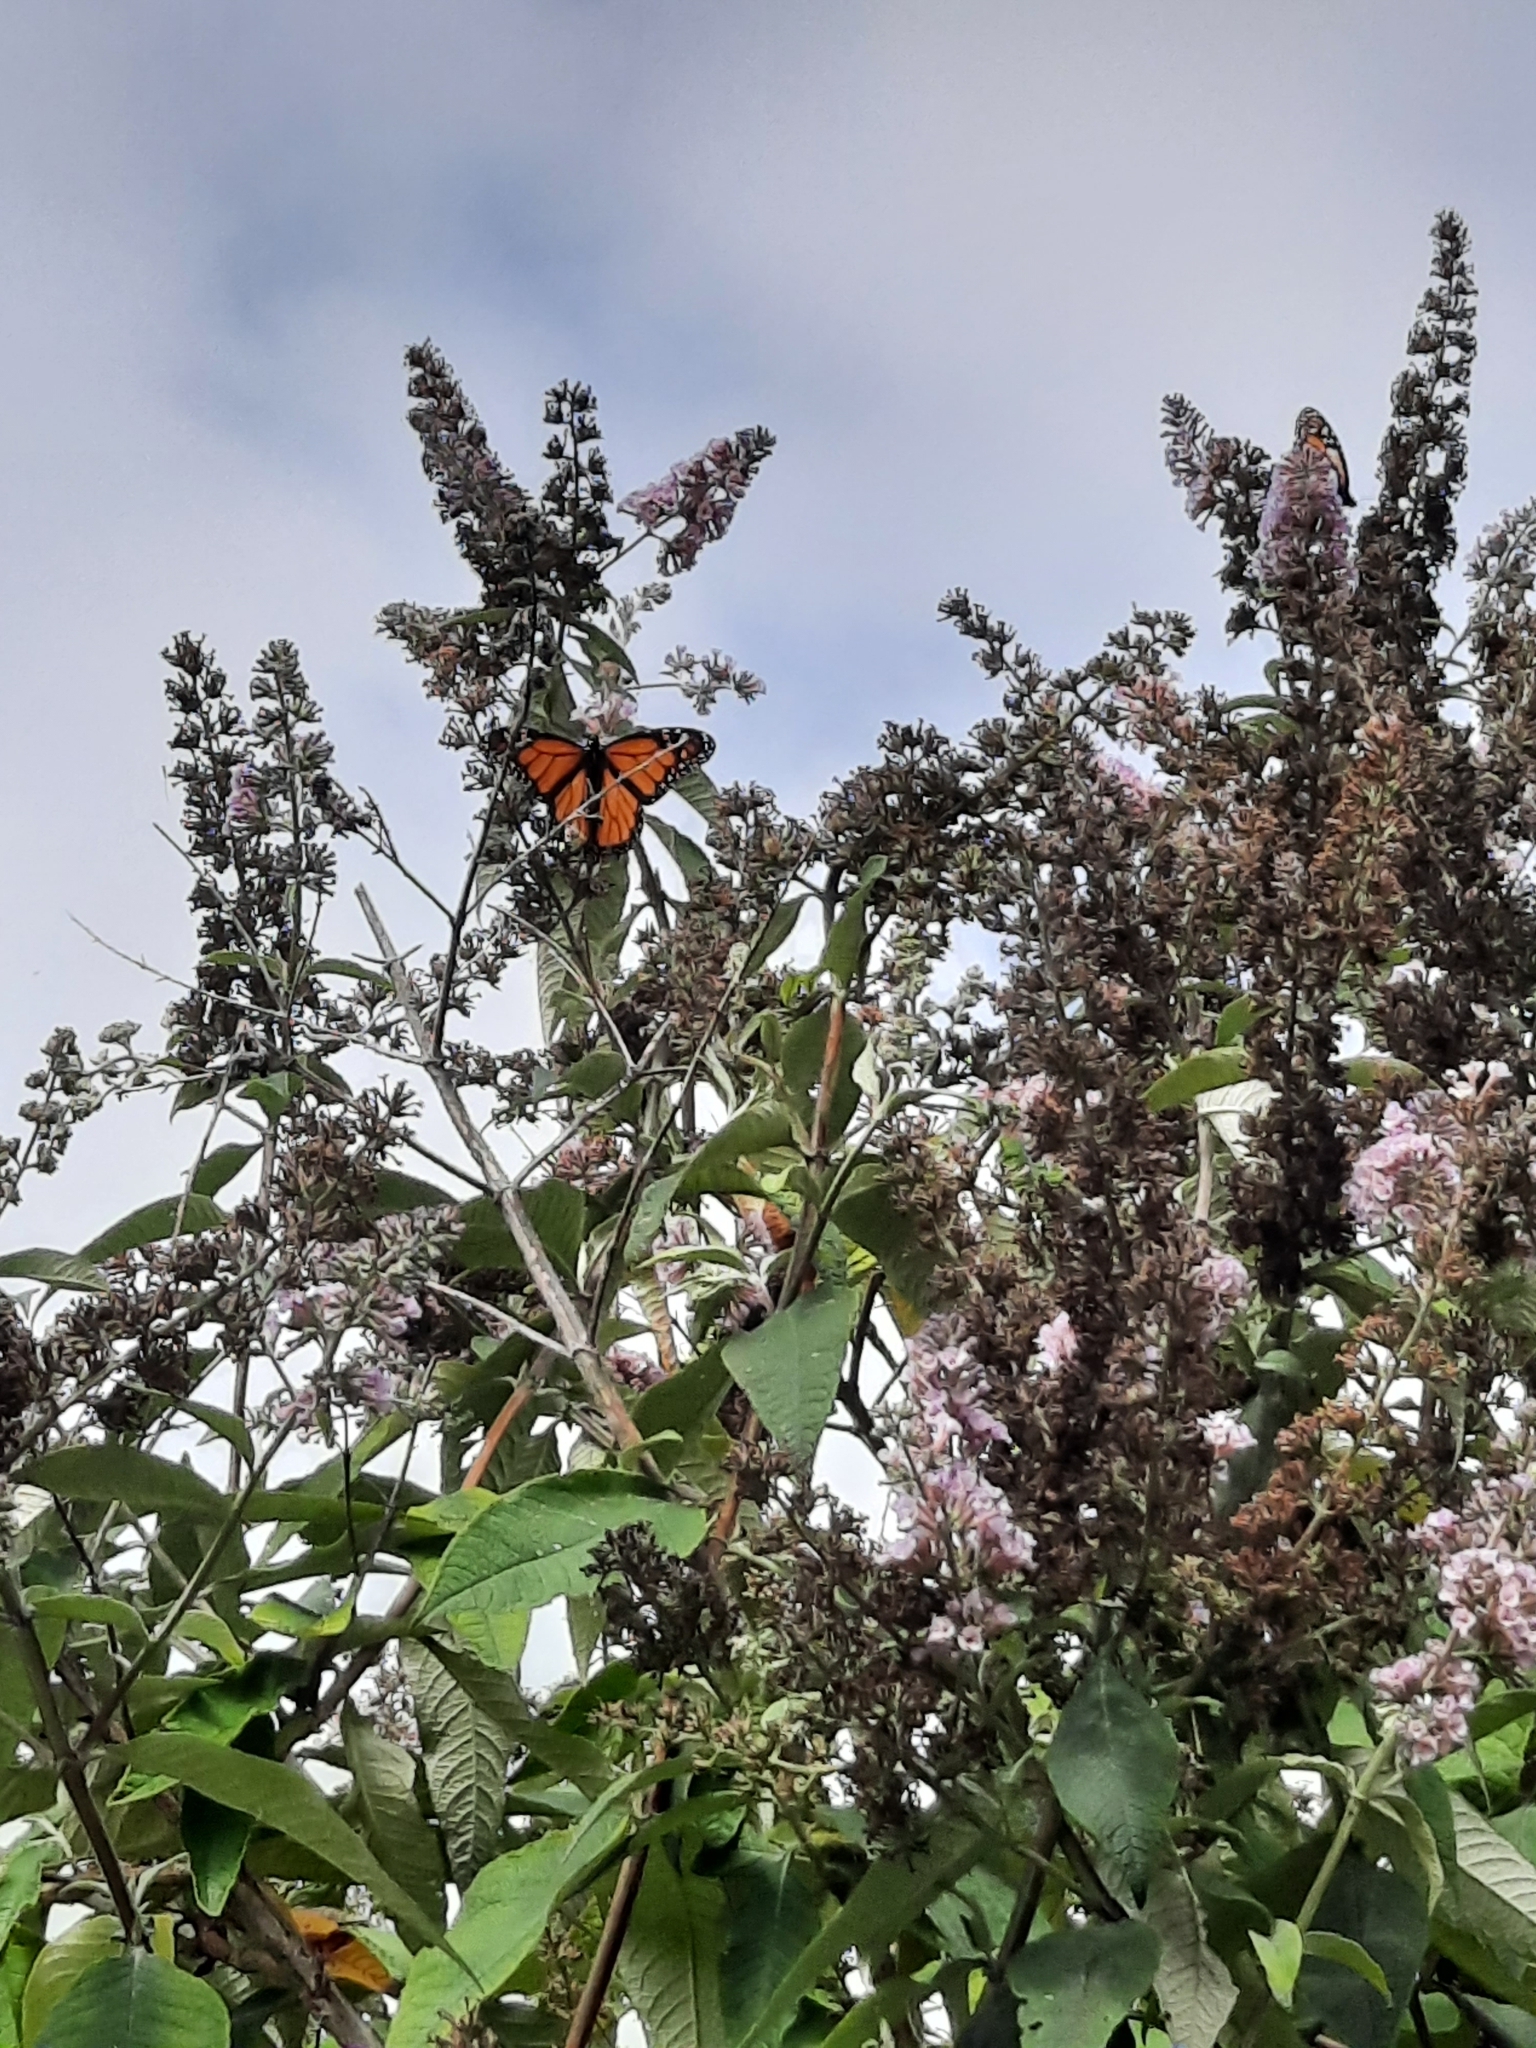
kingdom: Animalia
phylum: Arthropoda
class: Insecta
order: Lepidoptera
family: Nymphalidae
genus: Danaus
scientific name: Danaus plexippus
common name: Monarch
